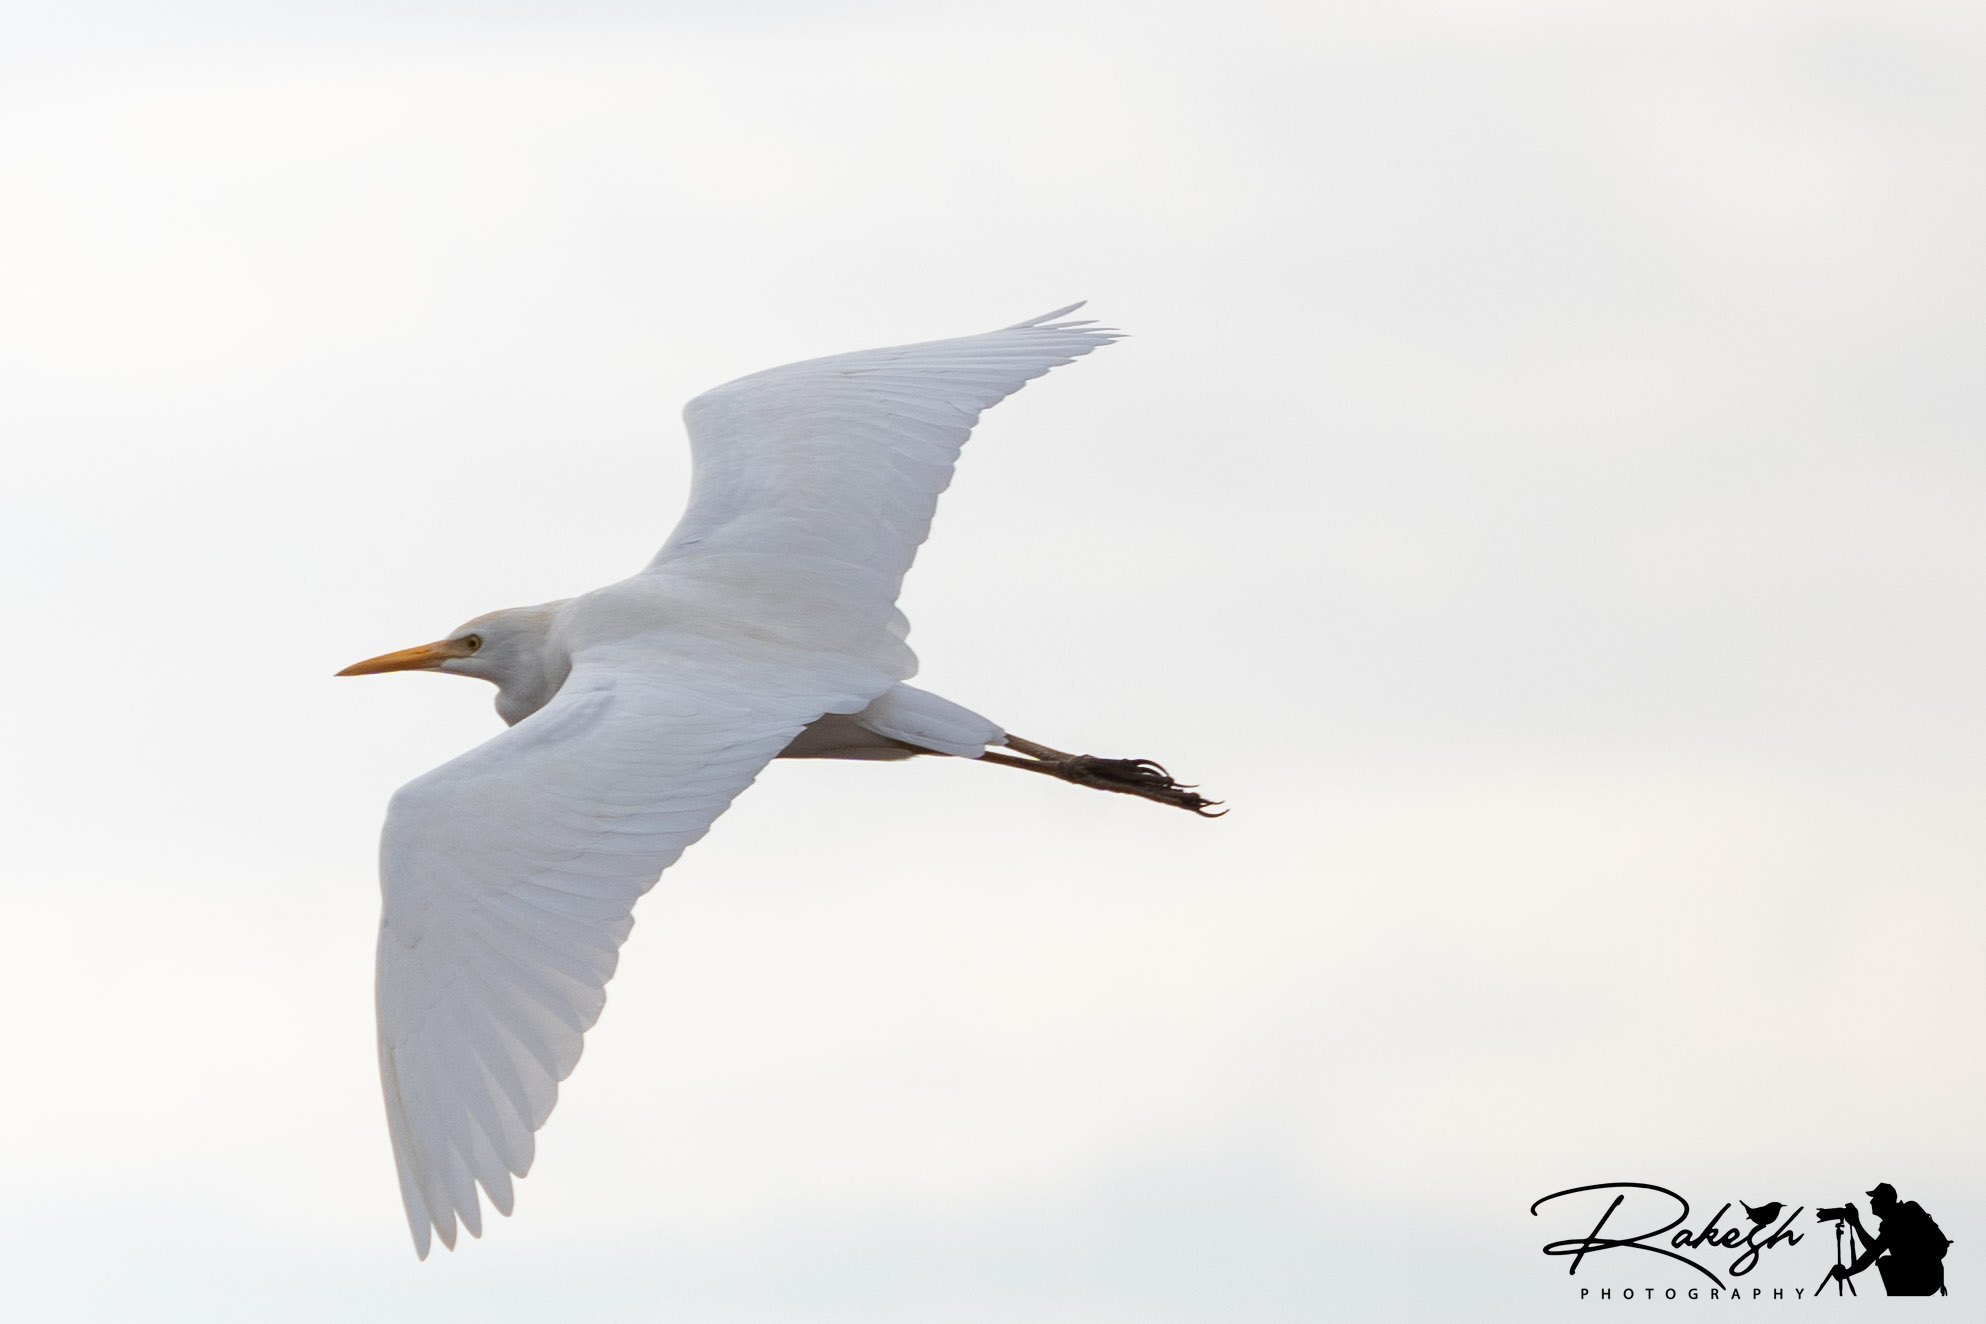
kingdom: Animalia
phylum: Chordata
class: Aves
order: Pelecaniformes
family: Ardeidae
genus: Bubulcus
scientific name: Bubulcus ibis
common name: Cattle egret
